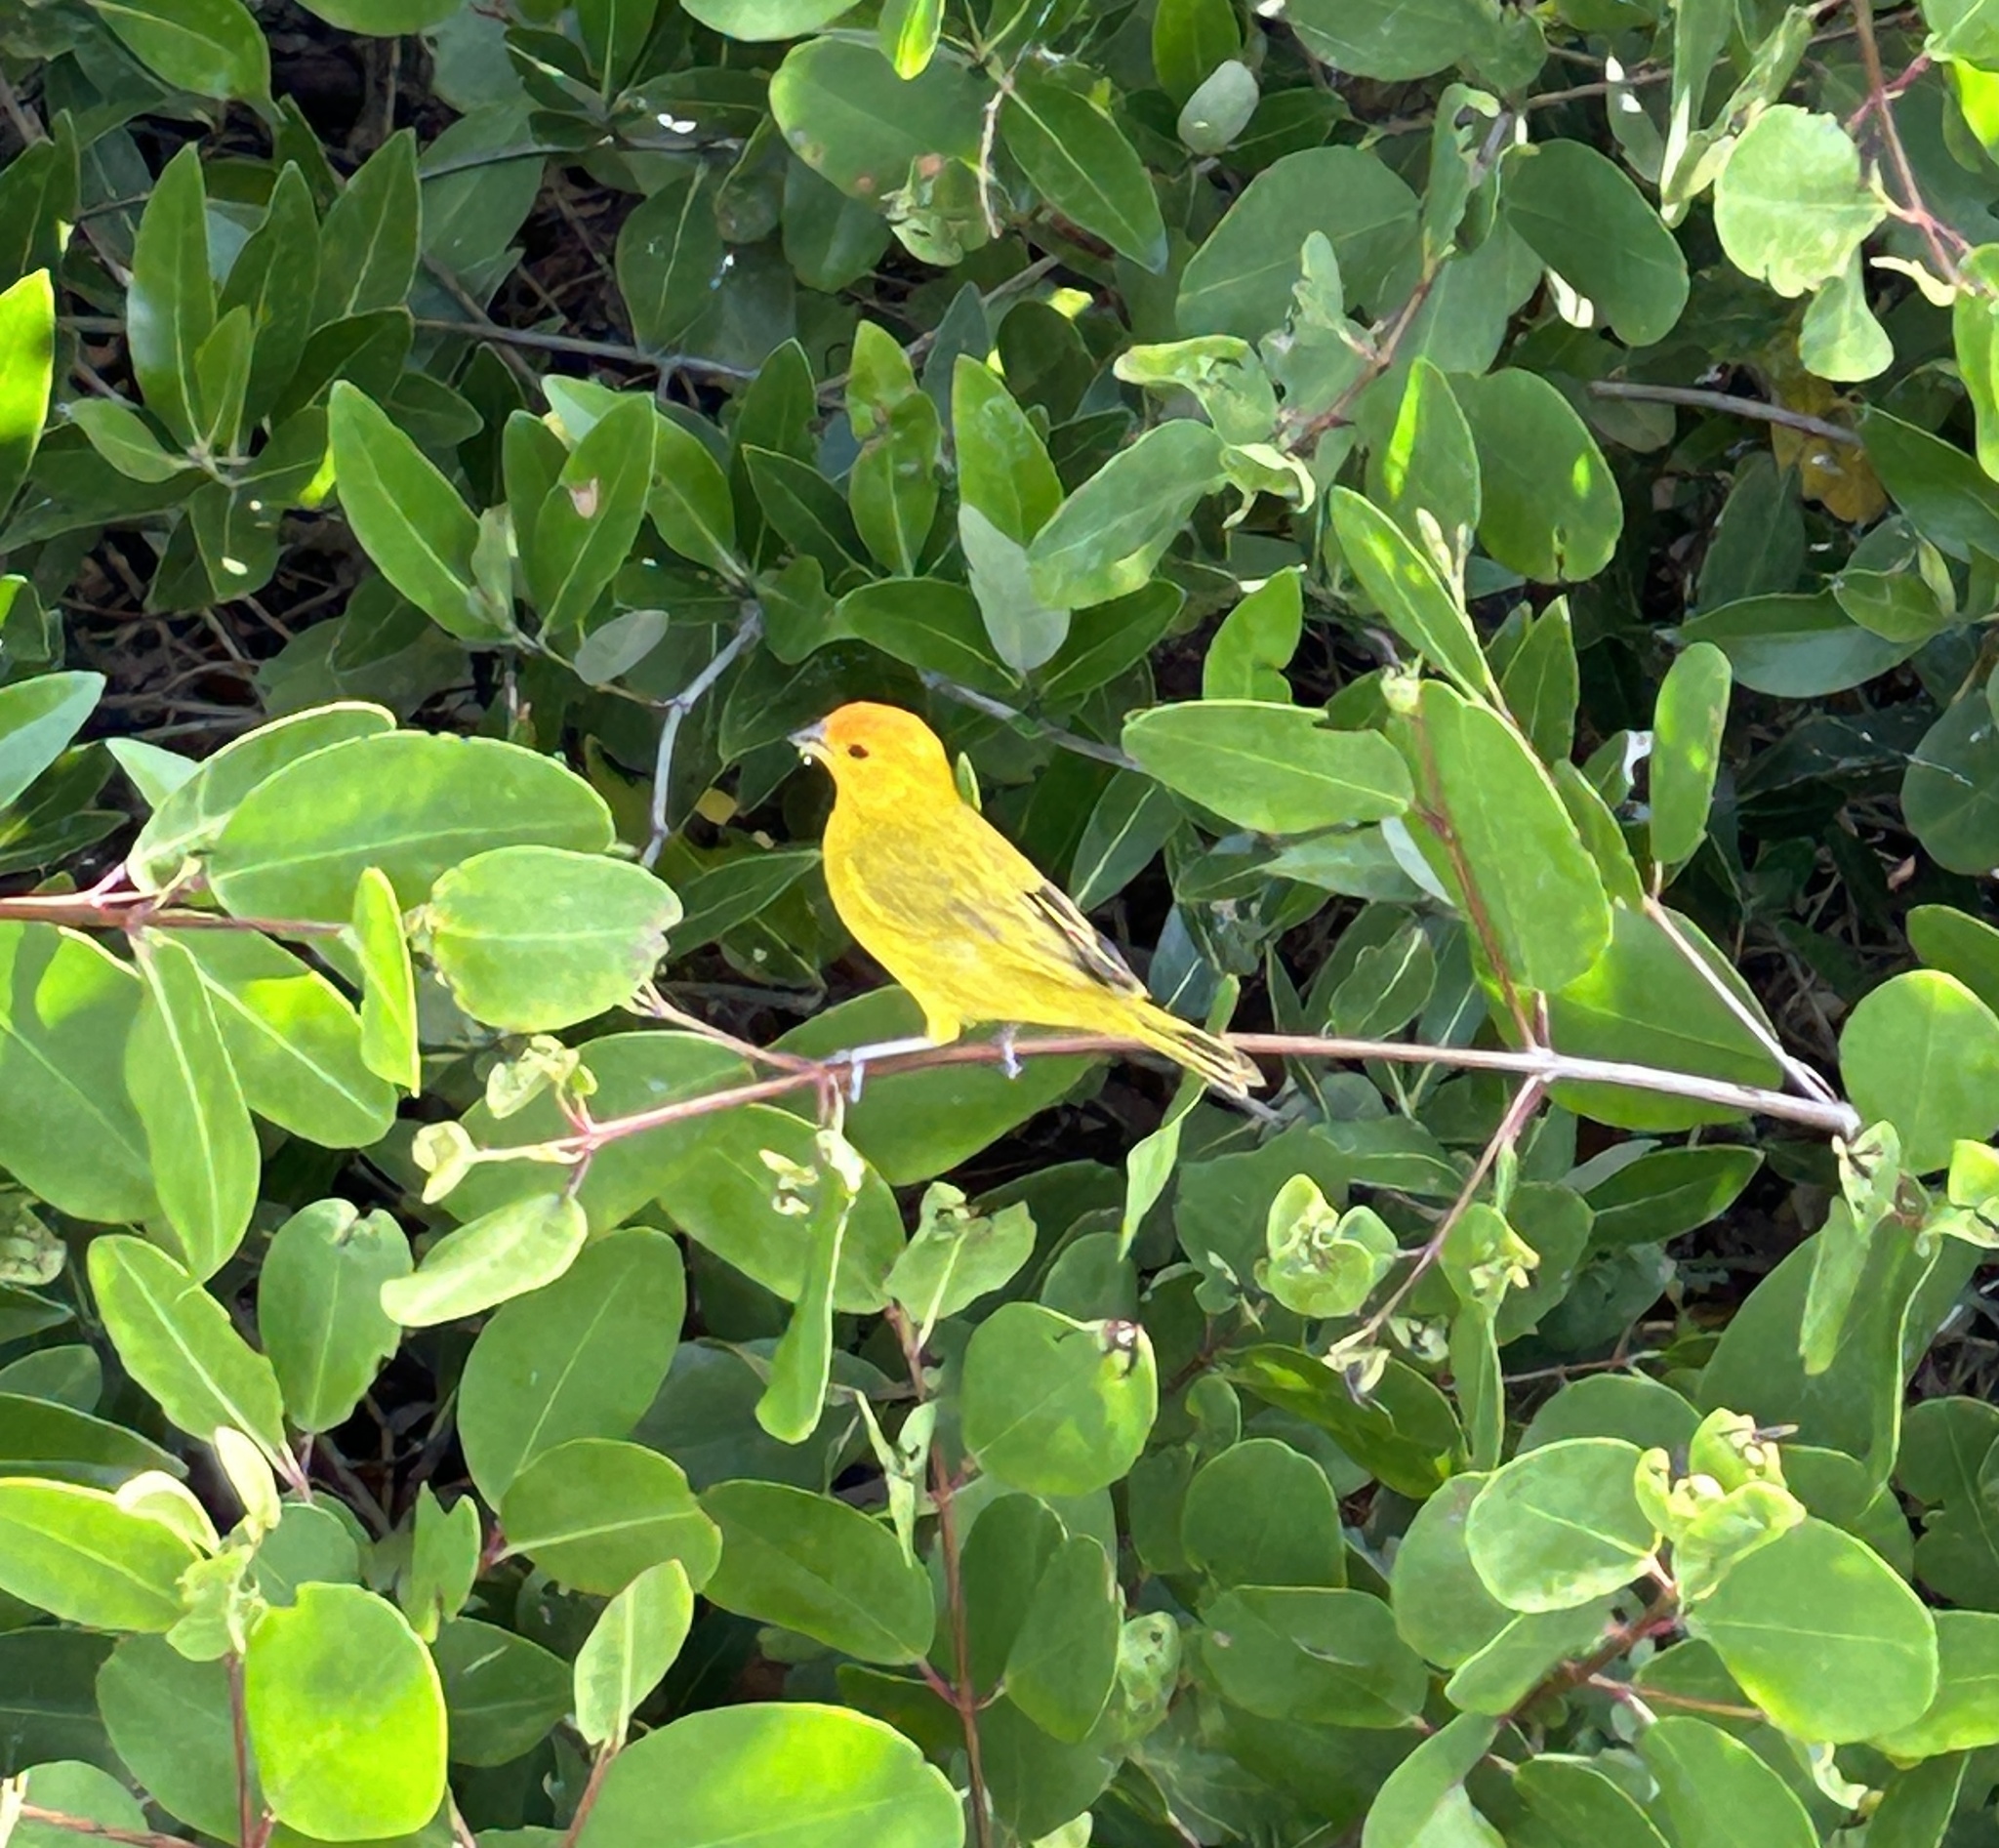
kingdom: Animalia
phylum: Chordata
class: Aves
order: Passeriformes
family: Thraupidae
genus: Sicalis
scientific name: Sicalis flaveola
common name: Saffron finch
